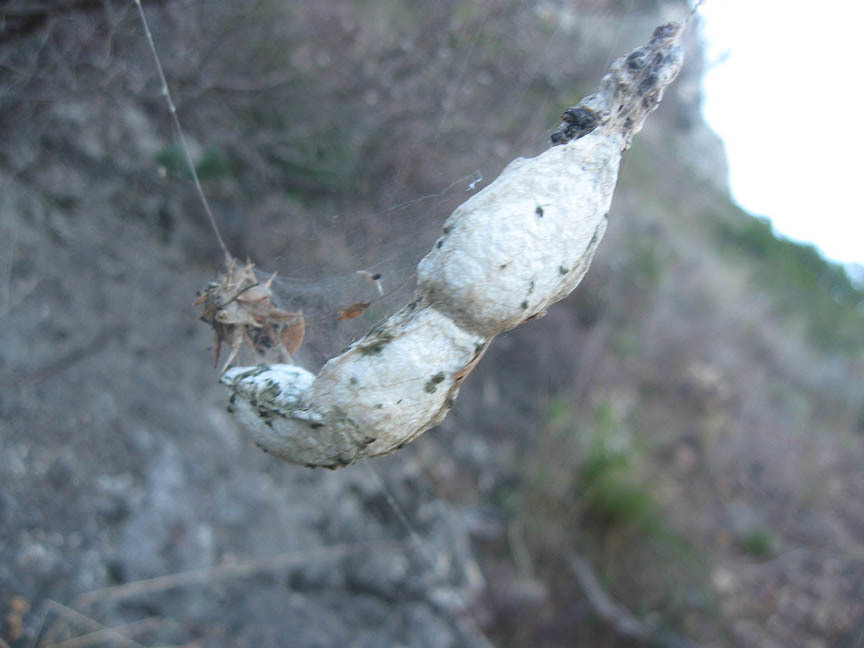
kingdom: Animalia
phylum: Arthropoda
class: Arachnida
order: Araneae
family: Araneidae
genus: Cyrtophora
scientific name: Cyrtophora citricola
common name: Orb weavers
